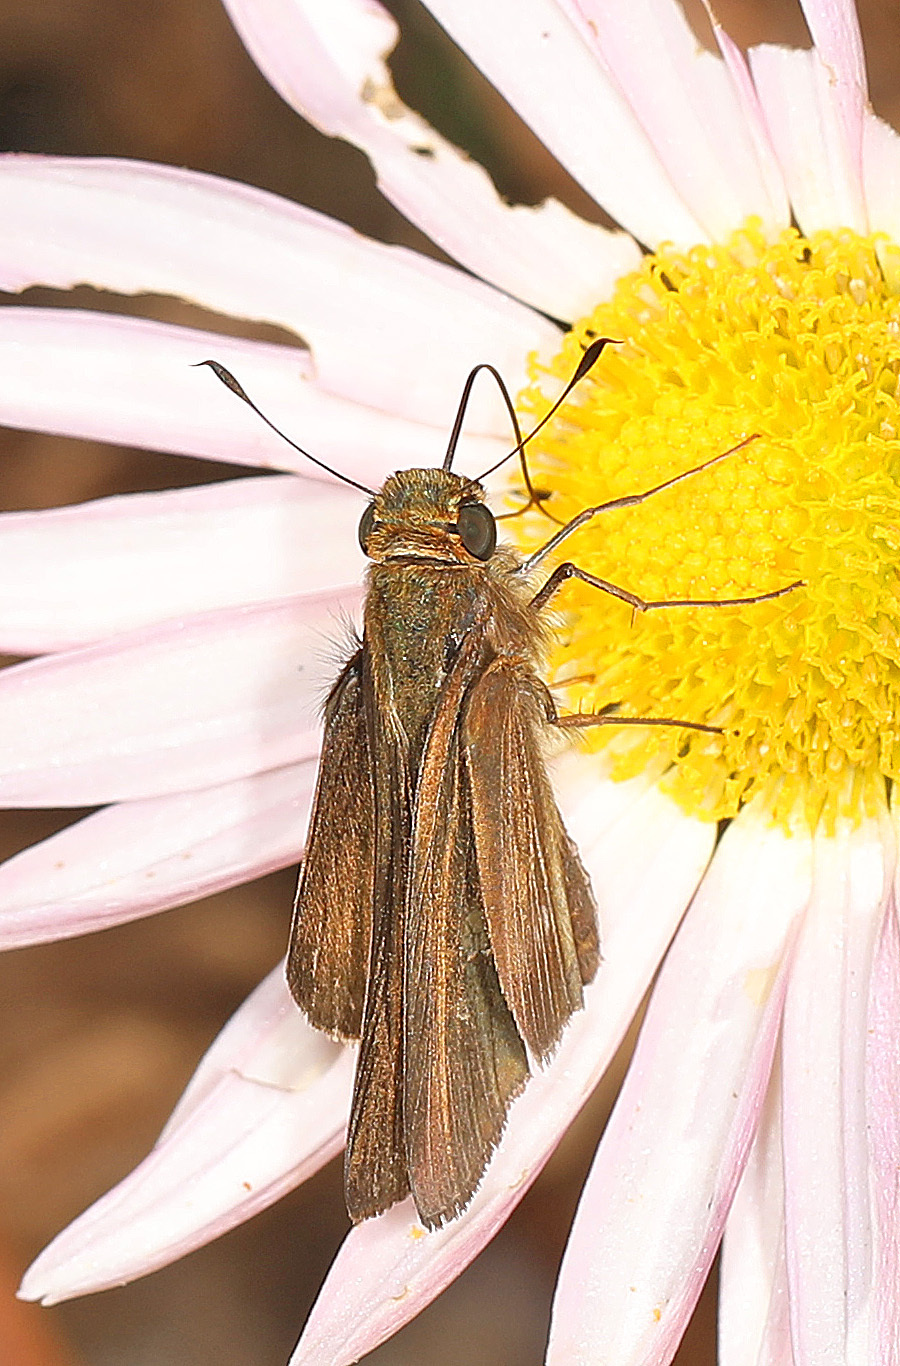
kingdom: Animalia
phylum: Arthropoda
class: Insecta
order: Lepidoptera
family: Hesperiidae
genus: Panoquina
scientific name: Panoquina ocola
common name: Ocola skipper
